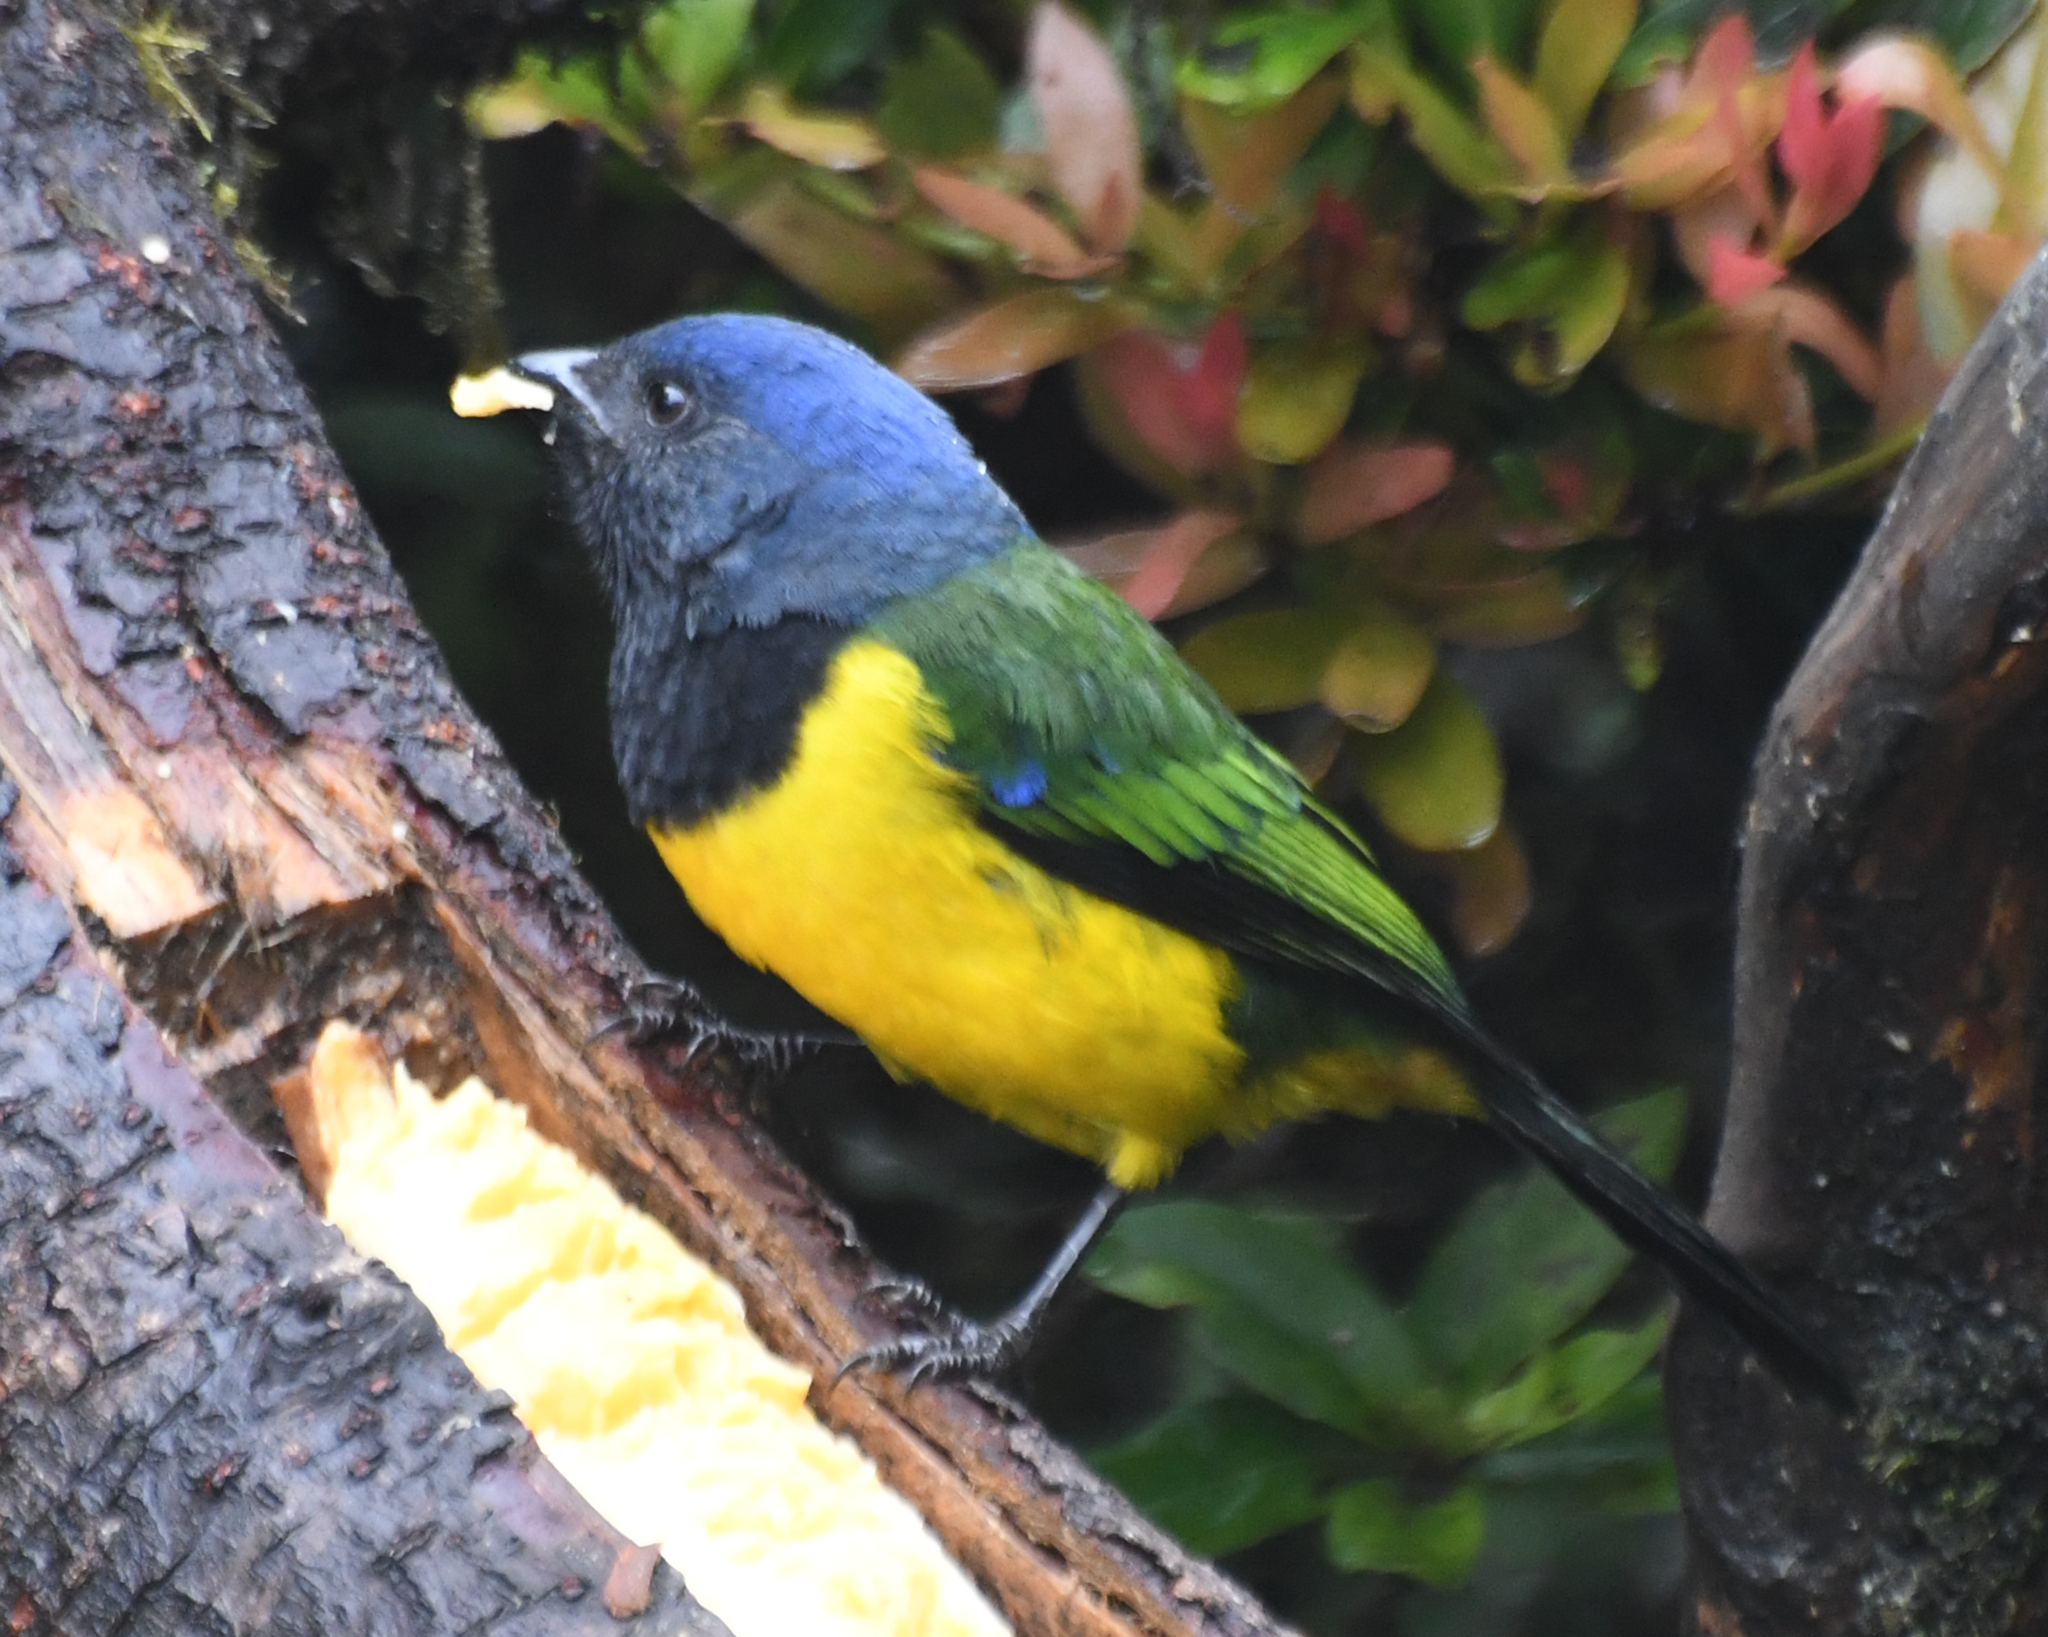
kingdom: Animalia
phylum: Chordata
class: Aves
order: Passeriformes
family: Thraupidae
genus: Cnemathraupis
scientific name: Cnemathraupis eximia
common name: Black-chested mountain-tanager
